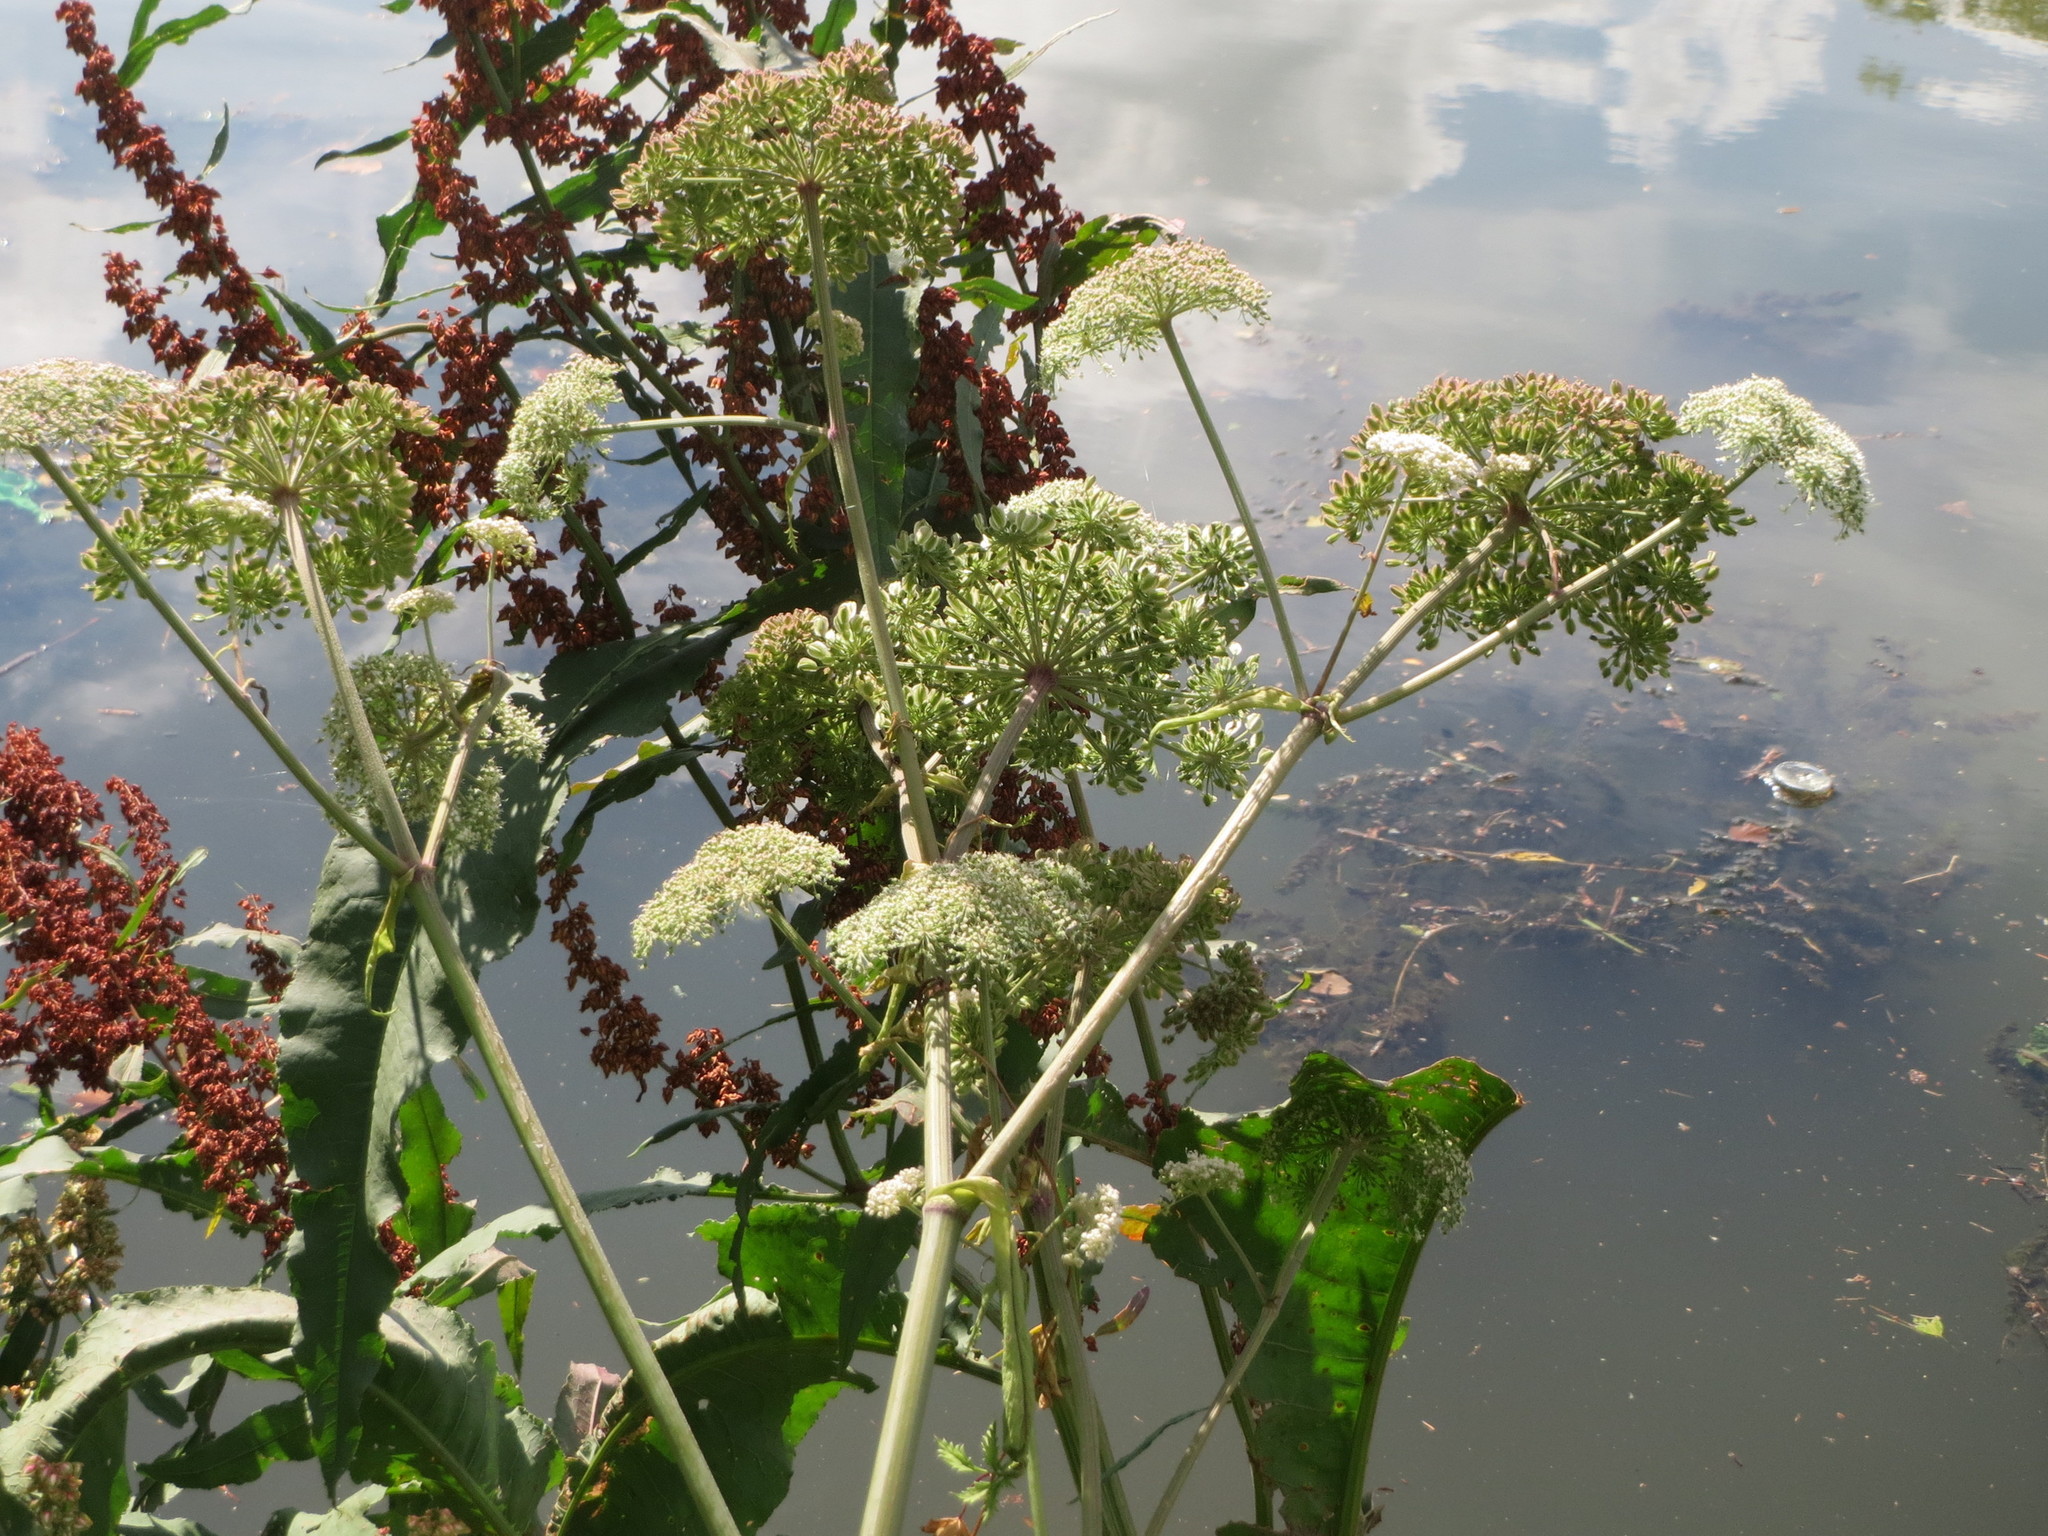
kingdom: Plantae
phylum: Tracheophyta
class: Magnoliopsida
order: Apiales
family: Apiaceae
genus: Angelica
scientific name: Angelica sylvestris
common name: Wild angelica
